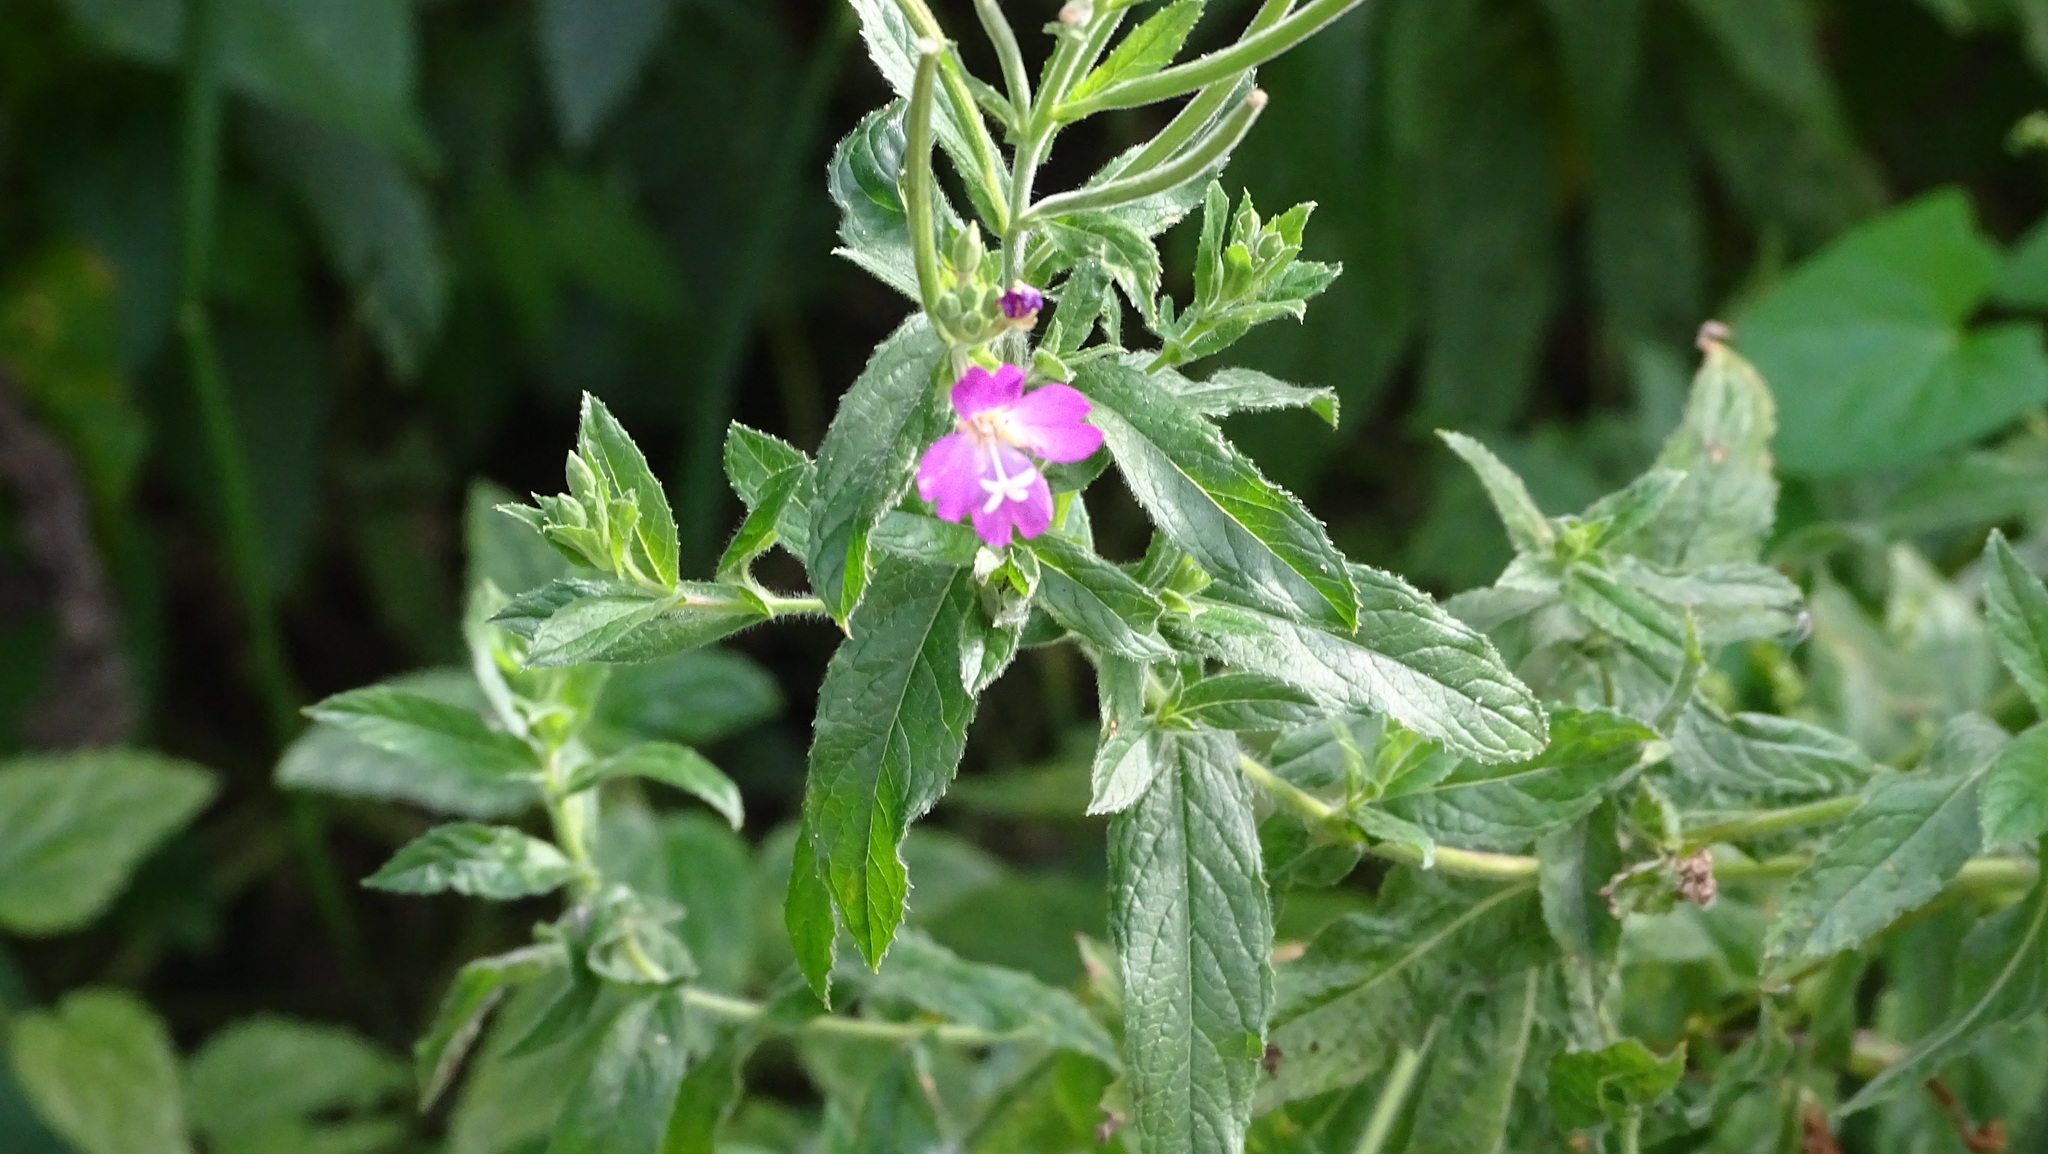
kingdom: Plantae
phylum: Tracheophyta
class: Magnoliopsida
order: Myrtales
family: Onagraceae
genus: Epilobium
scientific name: Epilobium hirsutum
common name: Great willowherb
